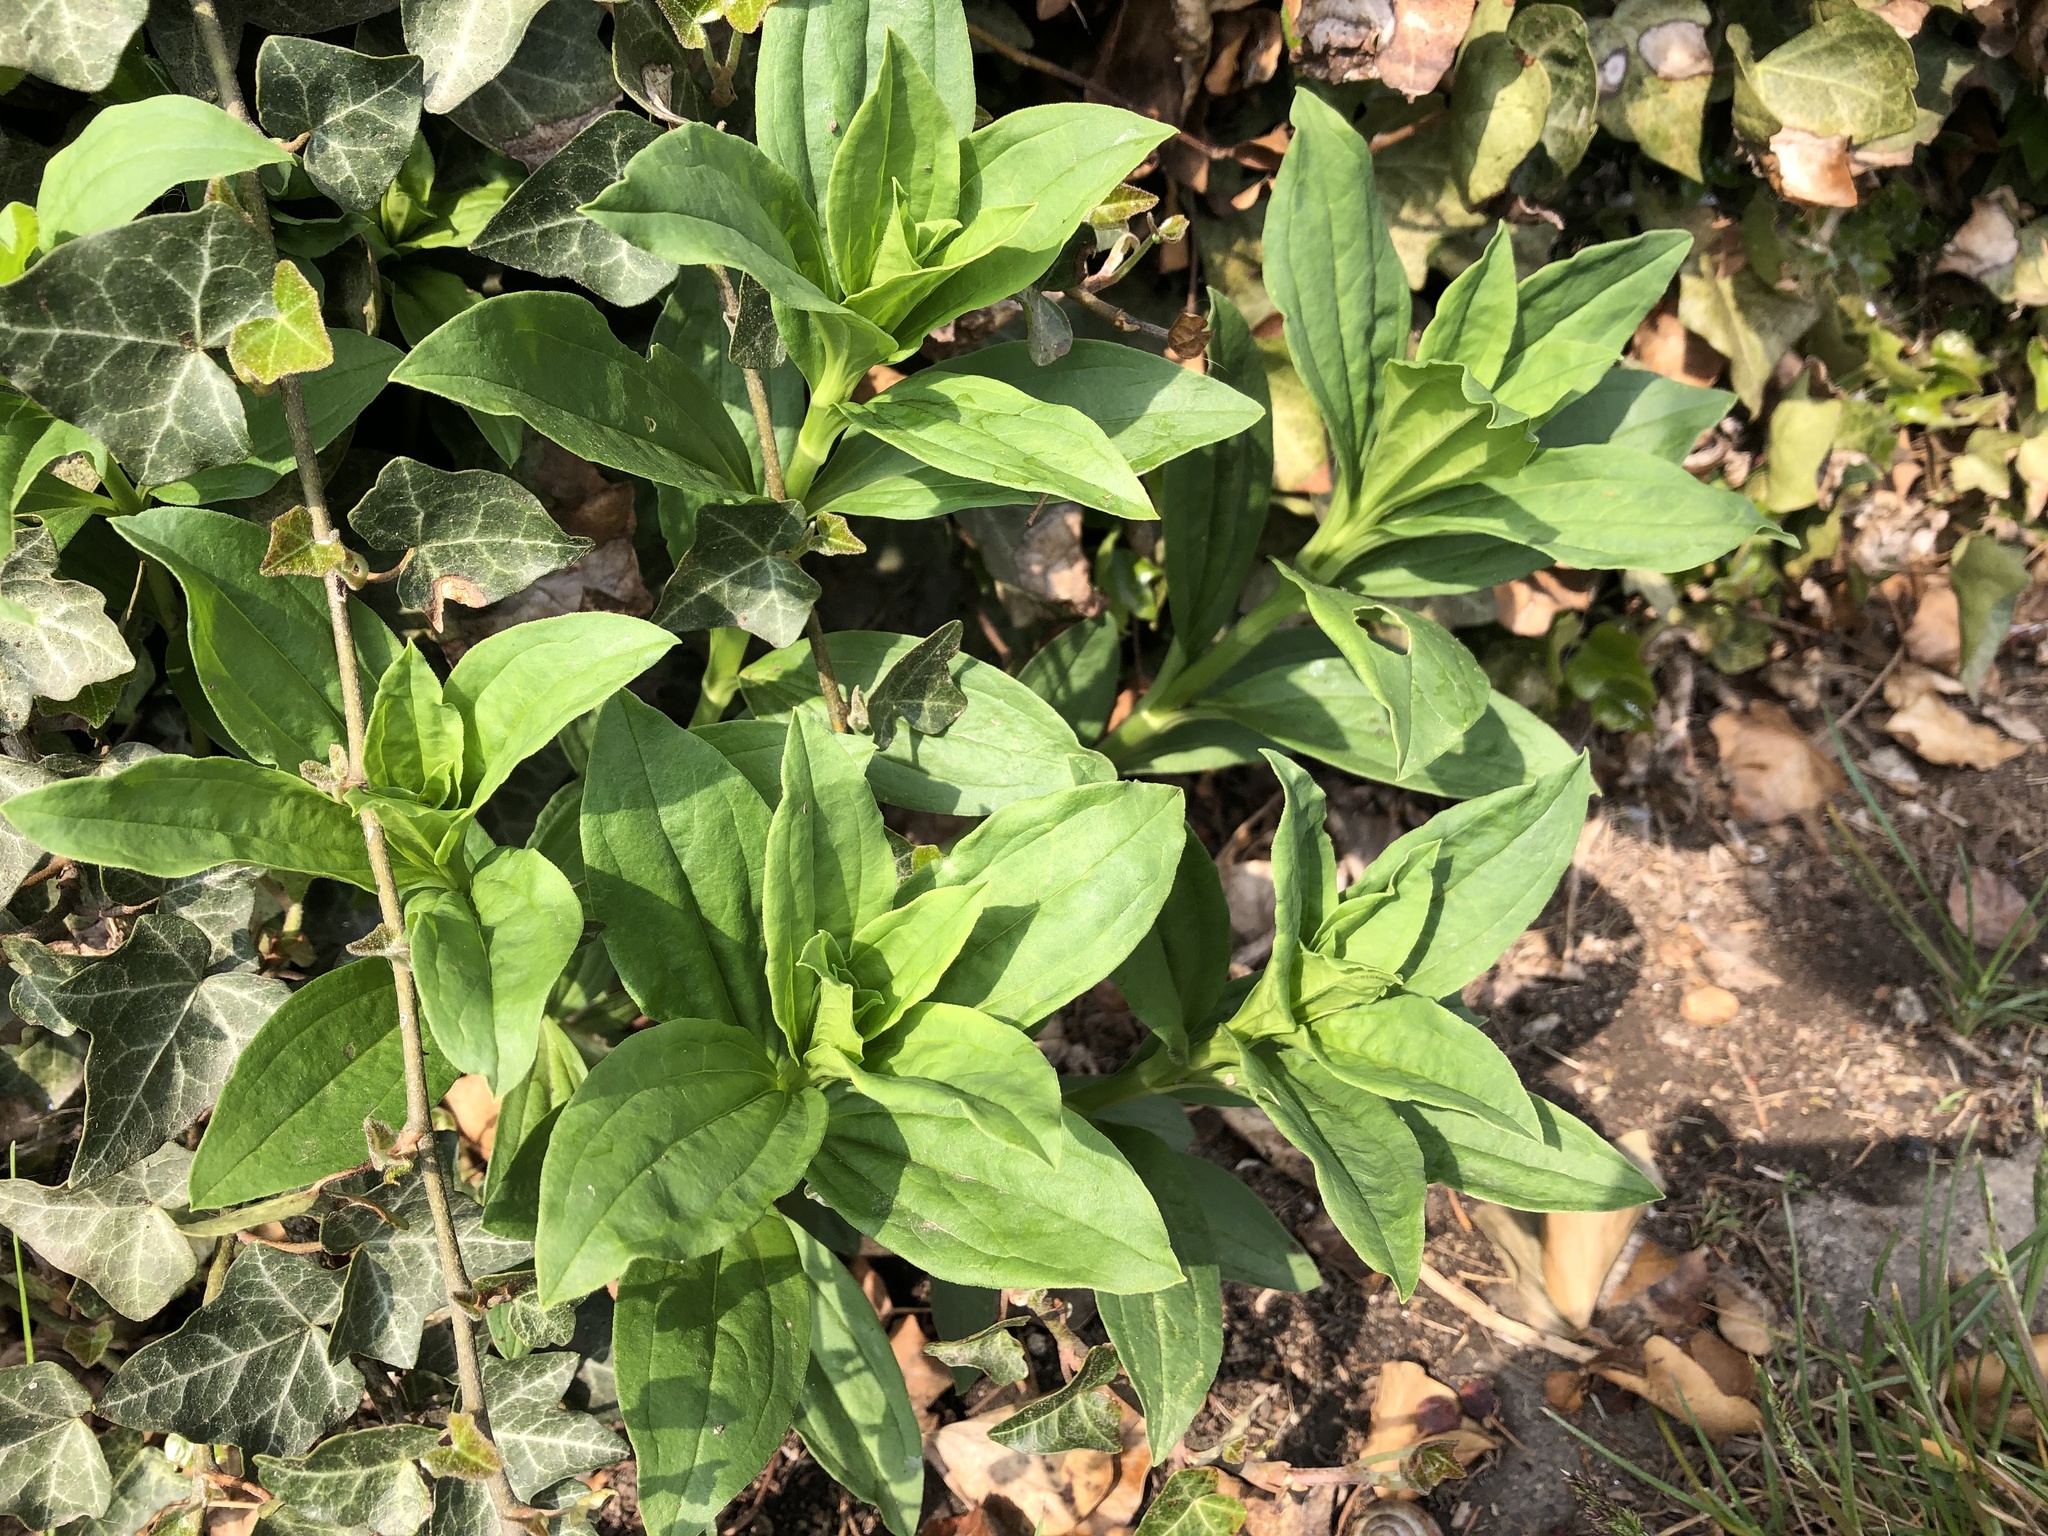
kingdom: Plantae
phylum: Tracheophyta
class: Magnoliopsida
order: Caryophyllales
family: Caryophyllaceae
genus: Saponaria
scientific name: Saponaria officinalis
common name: Soapwort
